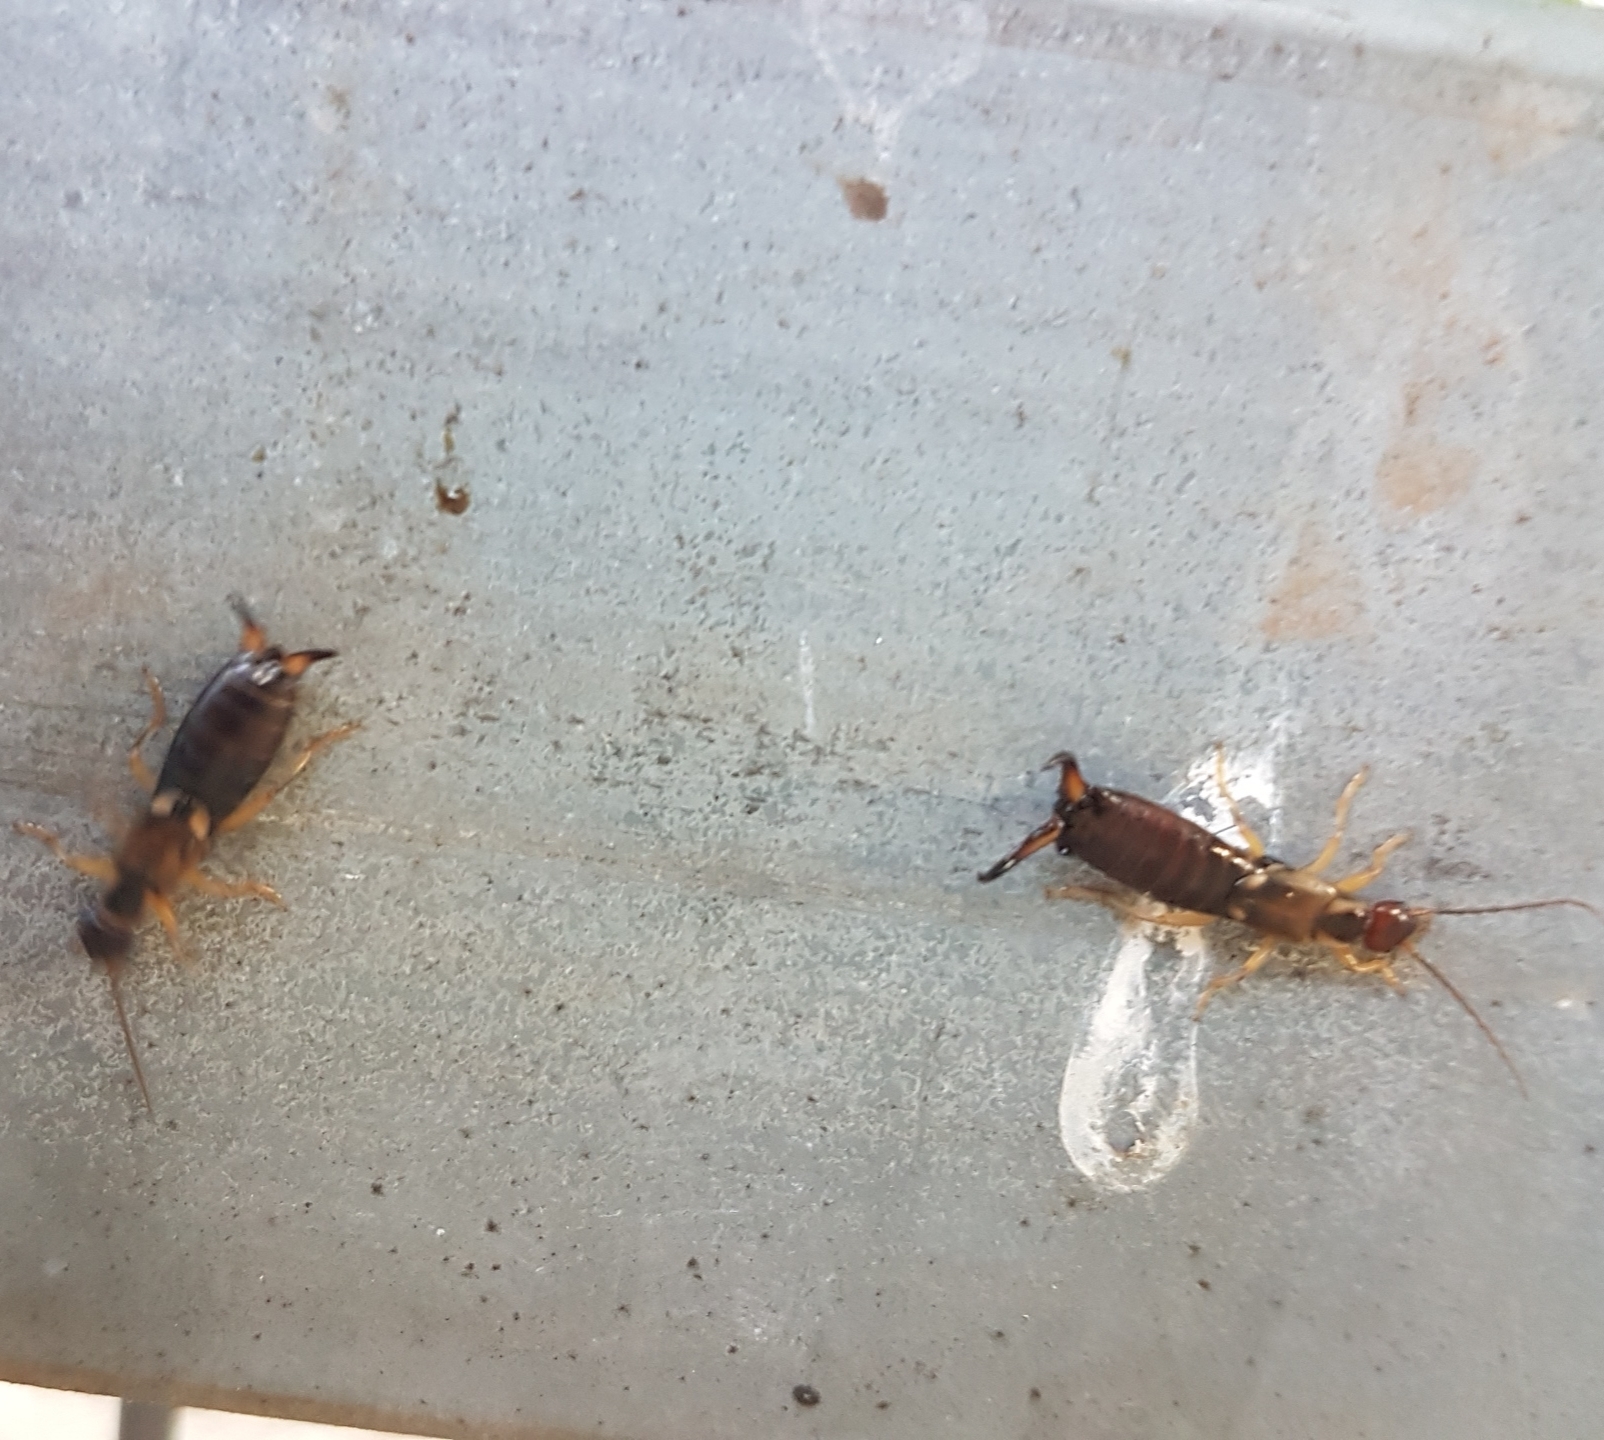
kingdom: Animalia
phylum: Arthropoda
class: Insecta
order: Dermaptera
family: Forficulidae
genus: Forficula
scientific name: Forficula
